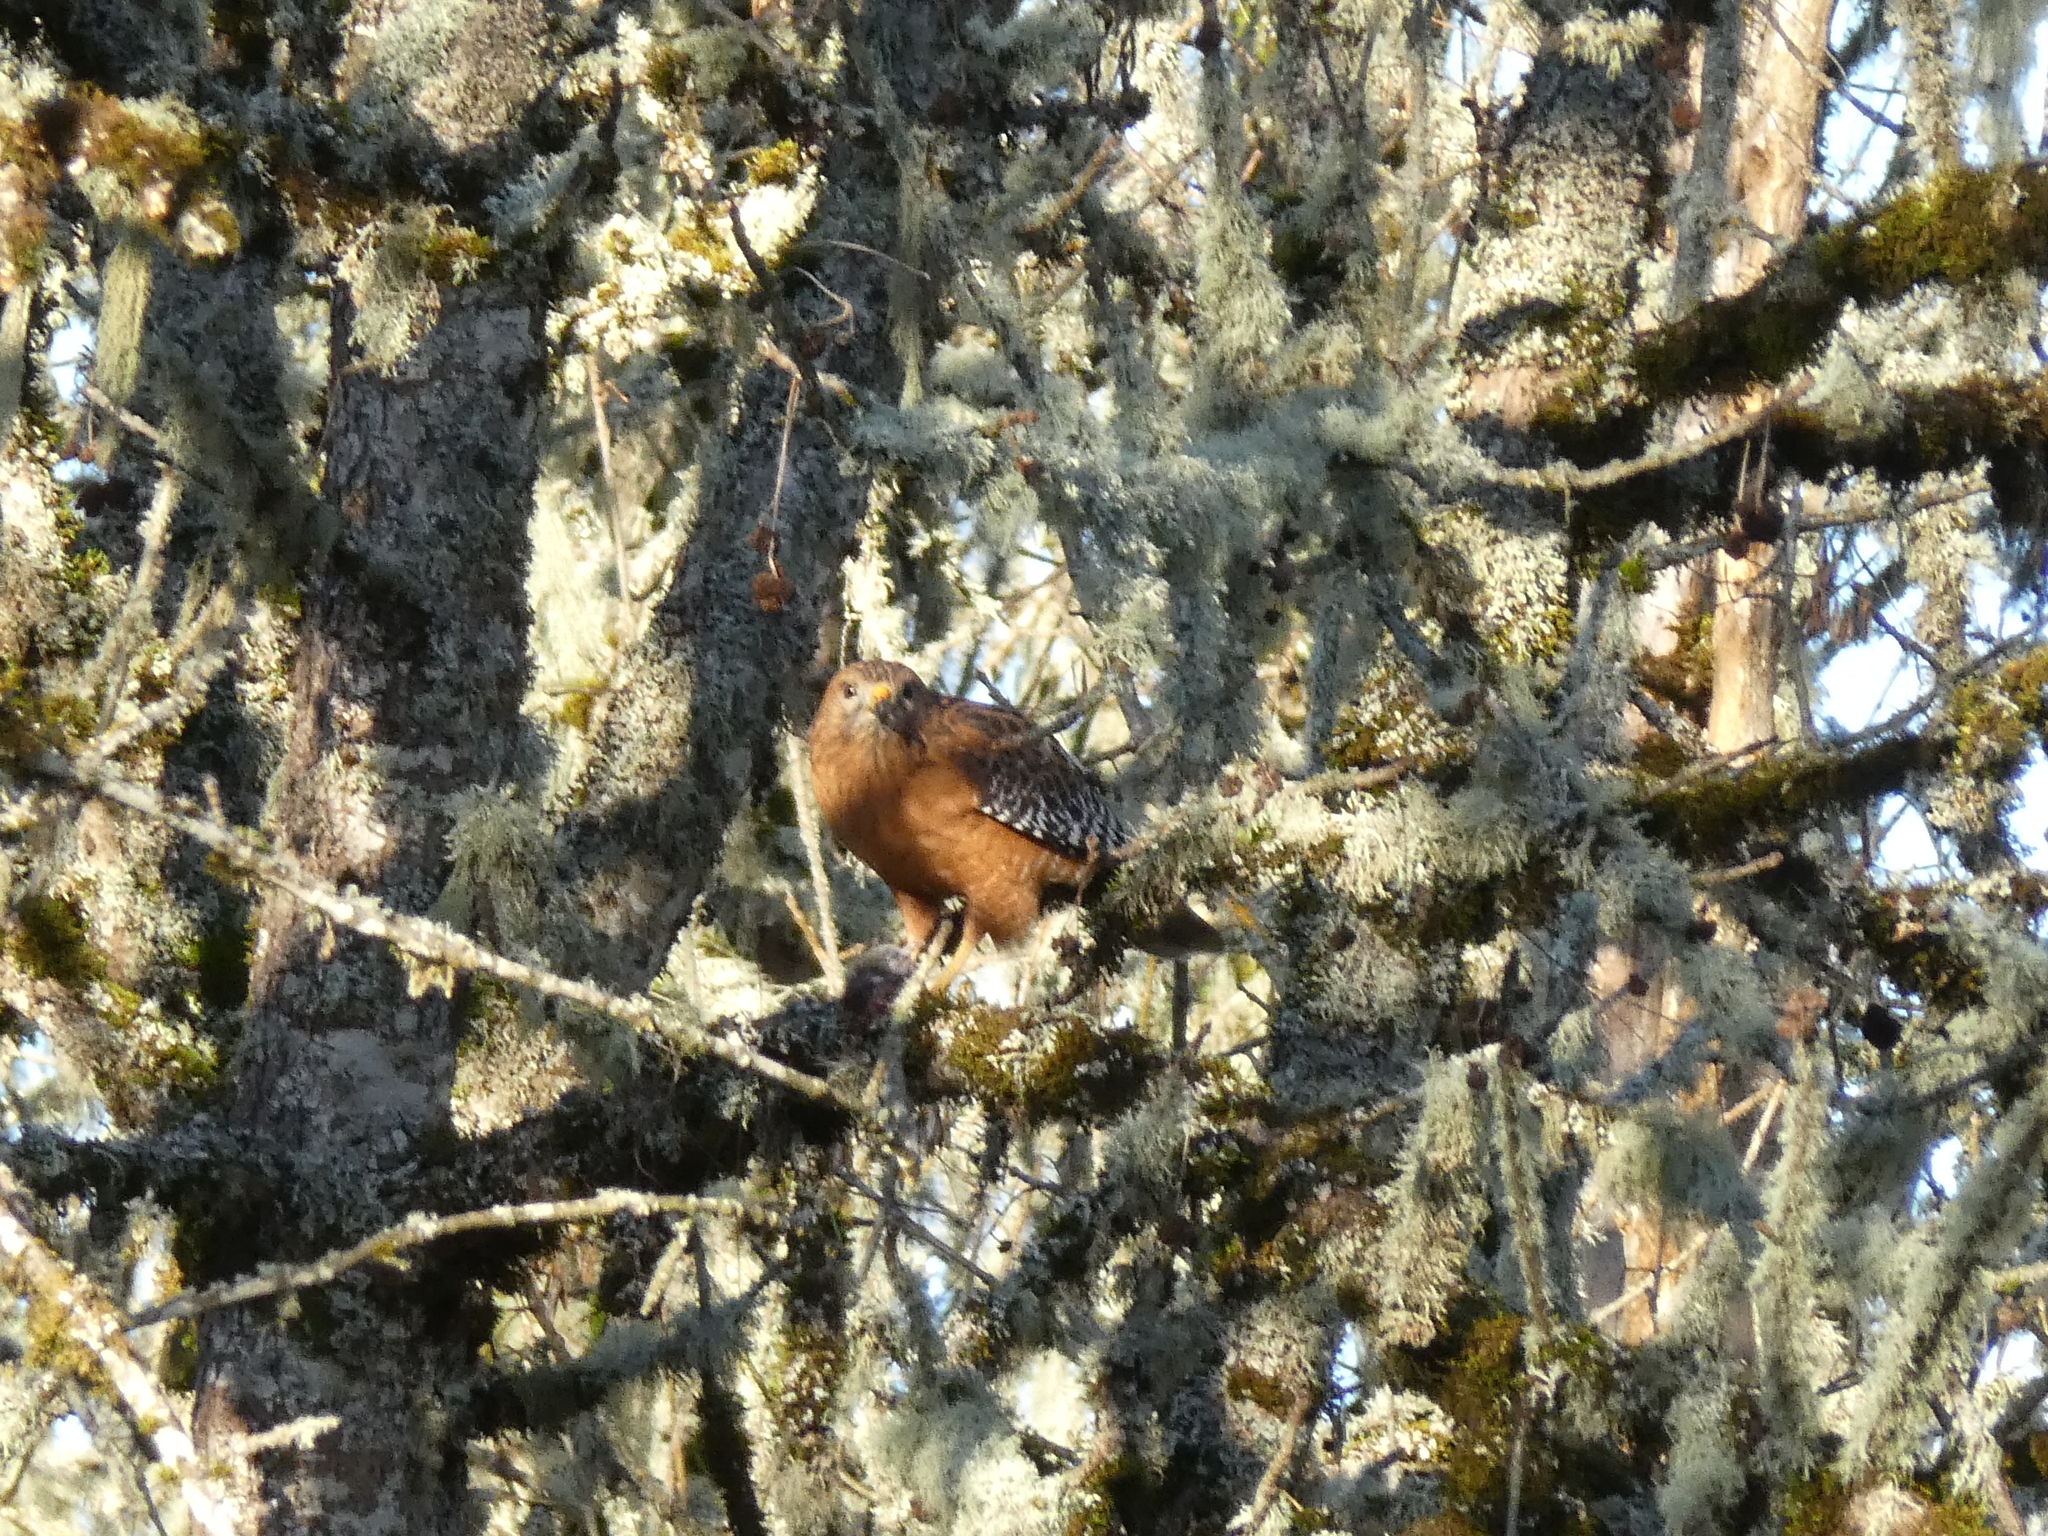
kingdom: Animalia
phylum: Chordata
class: Aves
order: Accipitriformes
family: Accipitridae
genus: Buteo
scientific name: Buteo lineatus
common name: Red-shouldered hawk
